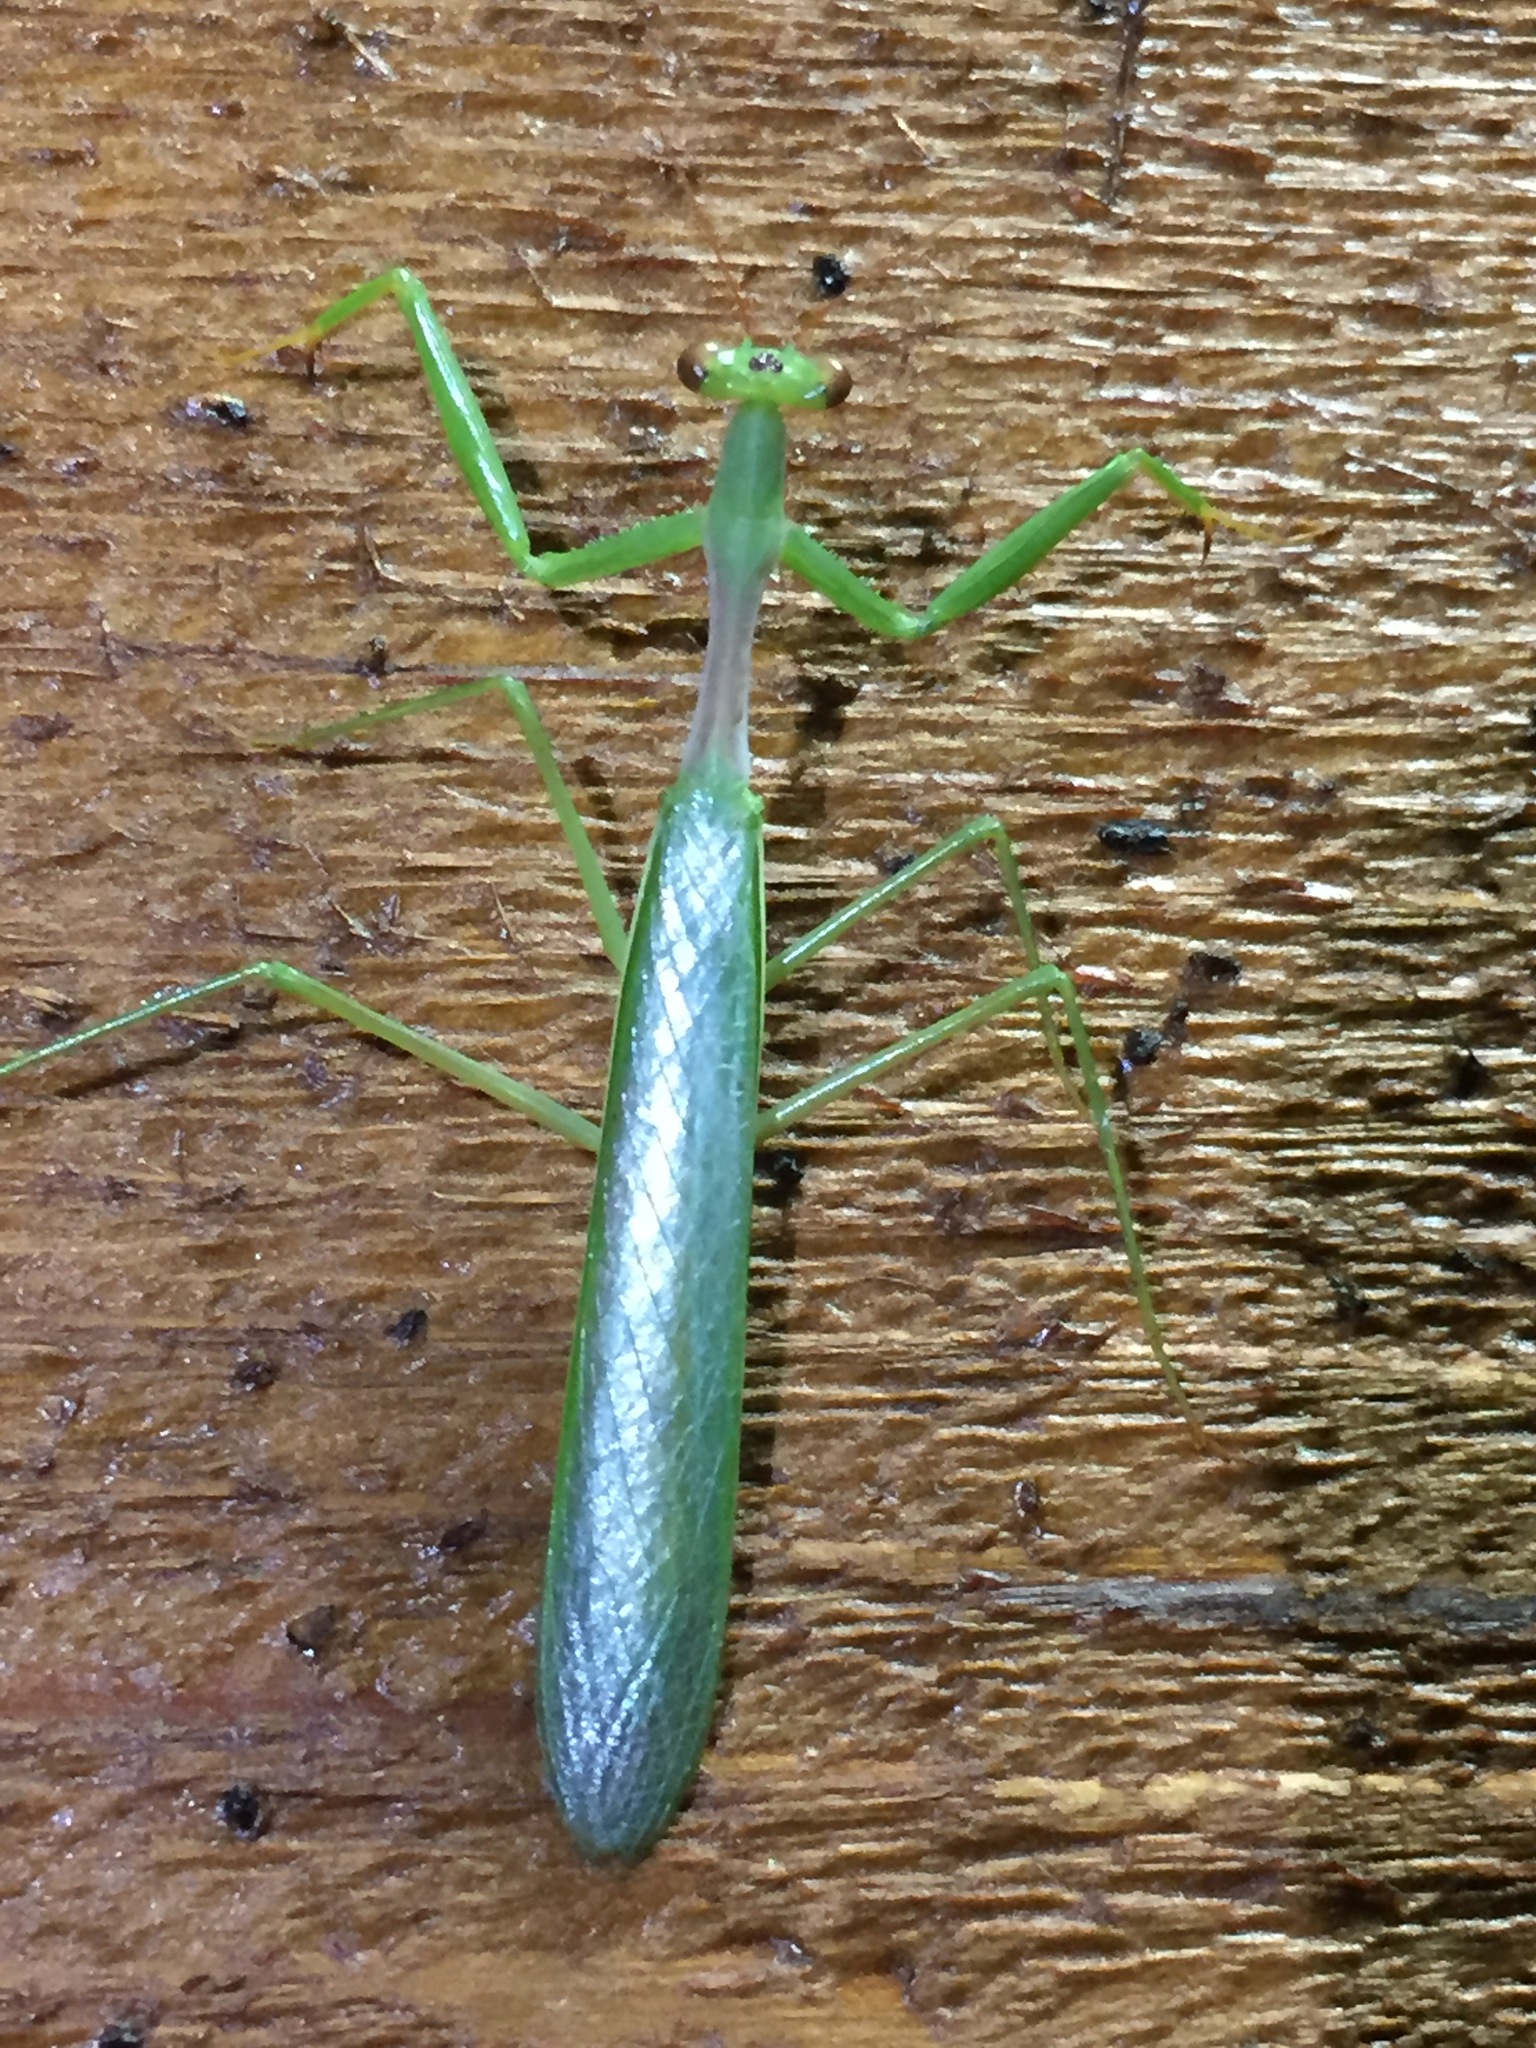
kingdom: Animalia
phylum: Arthropoda
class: Insecta
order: Mantodea
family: Miomantidae
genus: Miomantis
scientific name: Miomantis caffra
